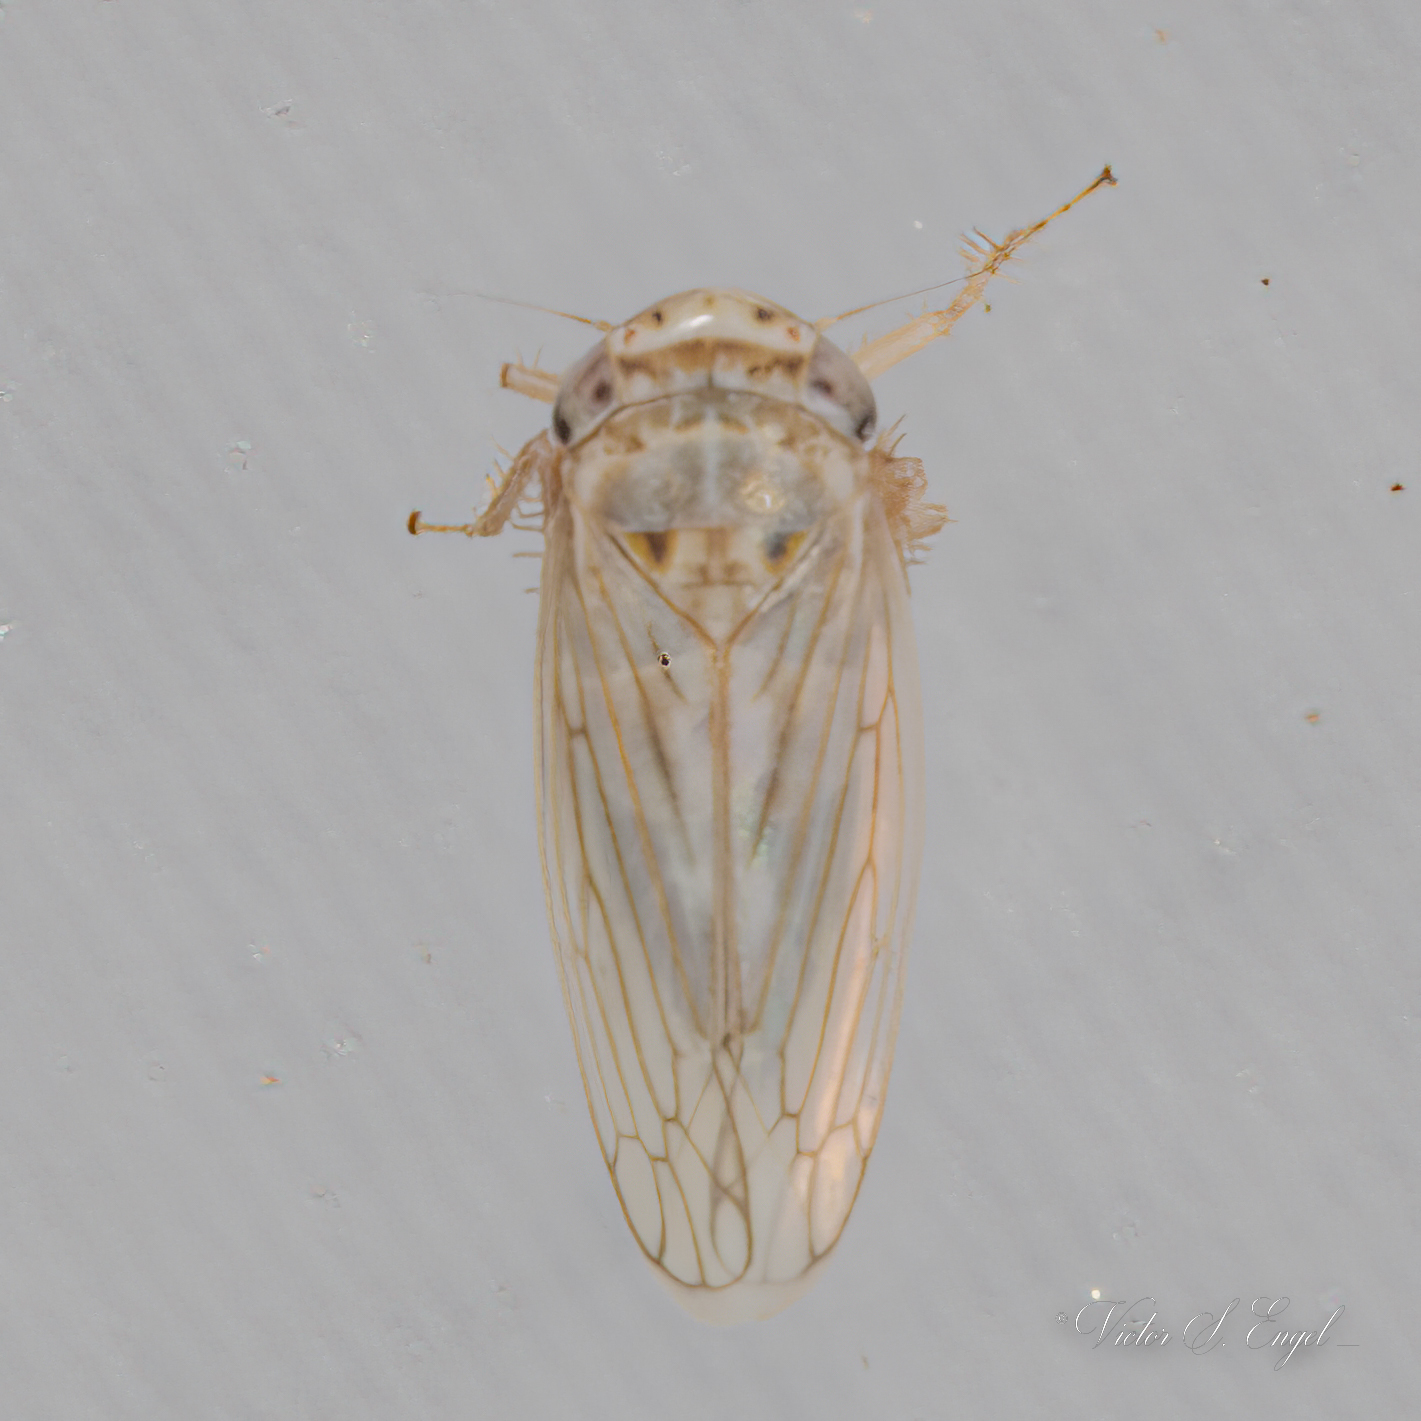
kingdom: Animalia
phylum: Arthropoda
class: Insecta
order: Hemiptera
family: Cicadellidae
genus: Exitianus
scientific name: Exitianus exitiosus
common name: Gray lawn leafhopper
